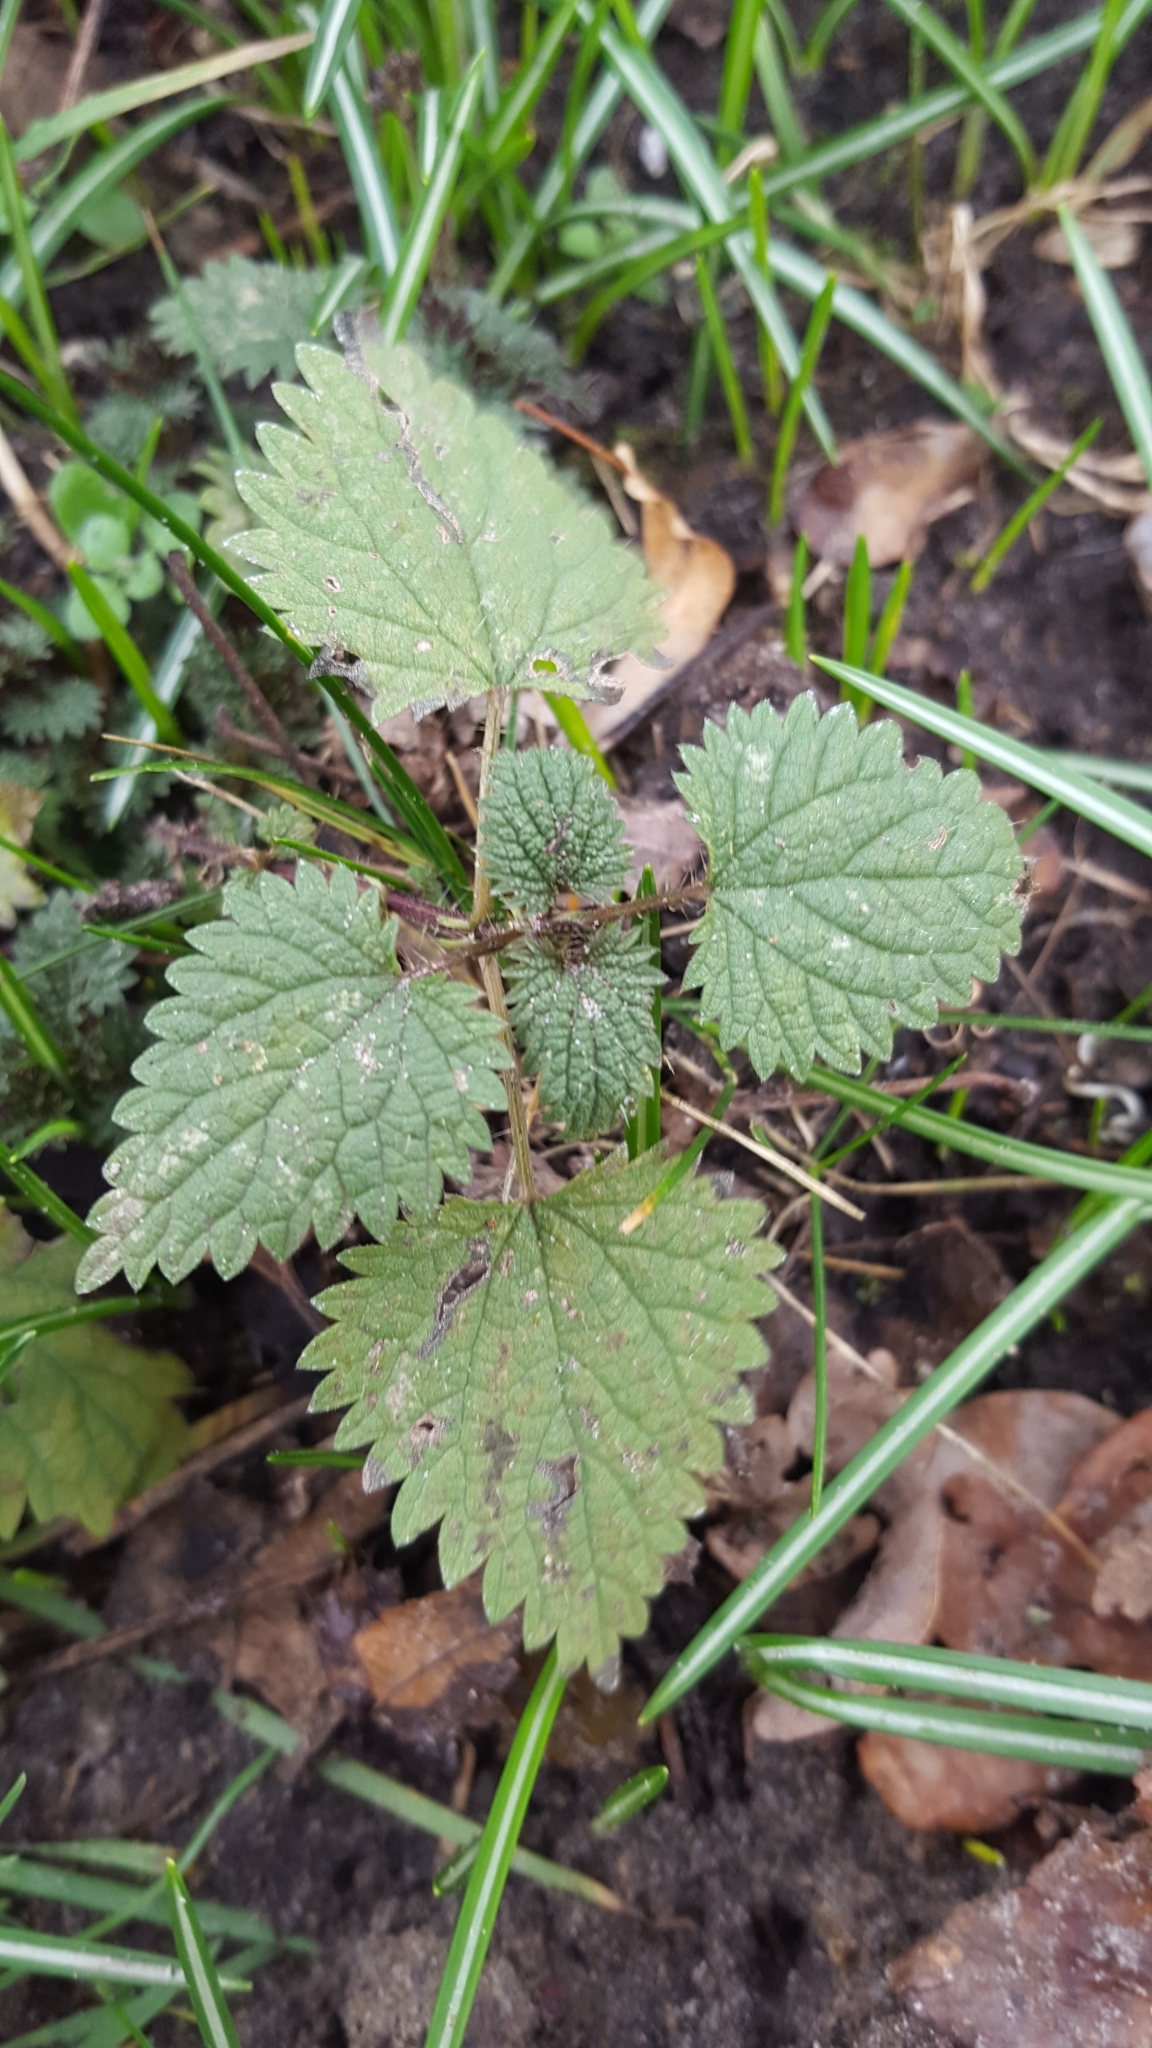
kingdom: Plantae
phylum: Tracheophyta
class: Magnoliopsida
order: Rosales
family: Urticaceae
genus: Urtica
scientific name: Urtica dioica
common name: Common nettle
